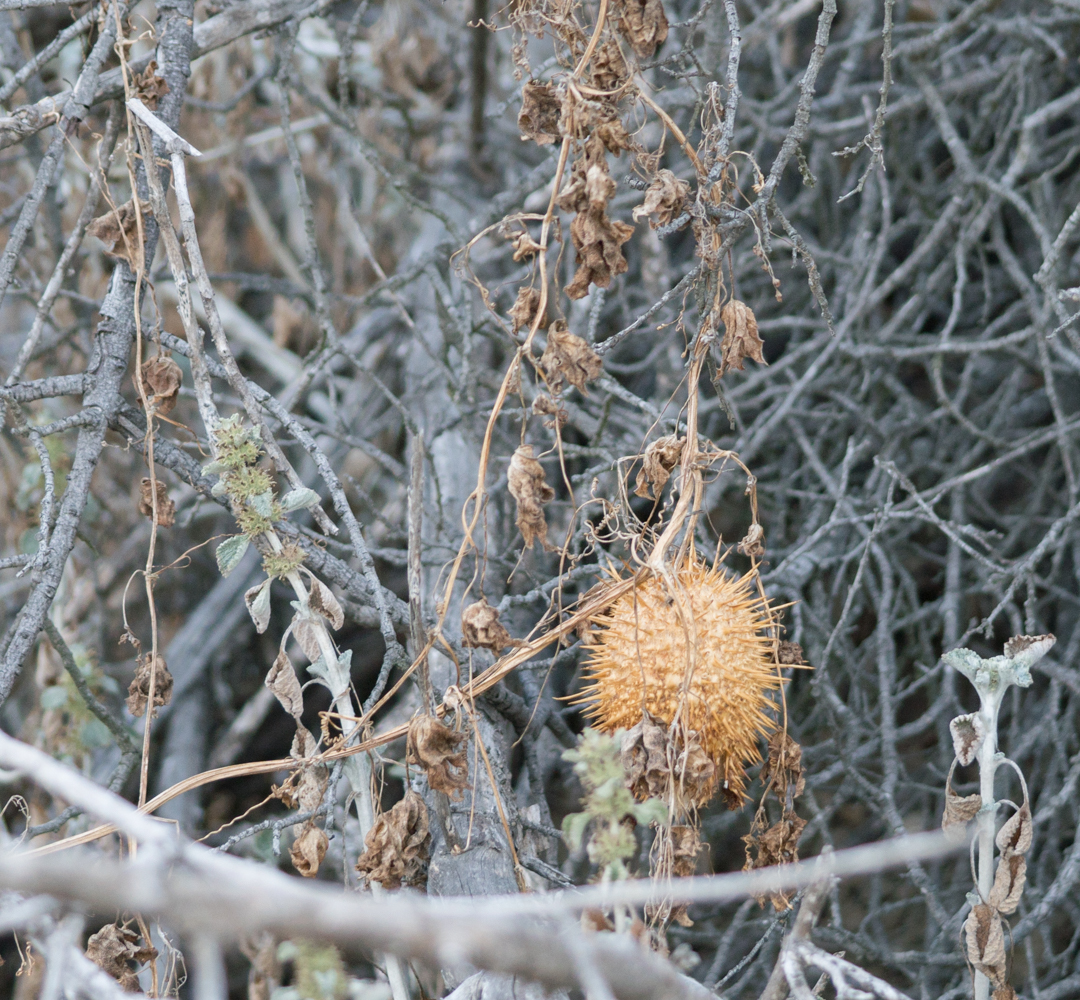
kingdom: Plantae
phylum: Tracheophyta
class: Magnoliopsida
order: Cucurbitales
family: Cucurbitaceae
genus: Marah
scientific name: Marah macrocarpa
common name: Cucamonga manroot
